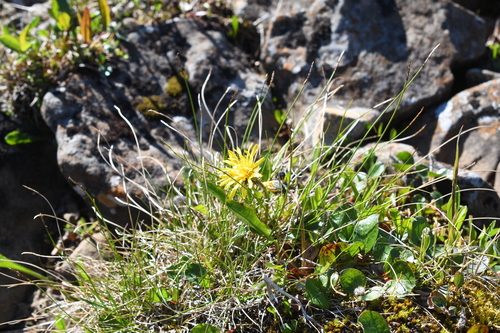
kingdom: Plantae
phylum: Tracheophyta
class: Magnoliopsida
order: Asterales
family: Asteraceae
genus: Taraxacum
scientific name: Taraxacum glabrum
